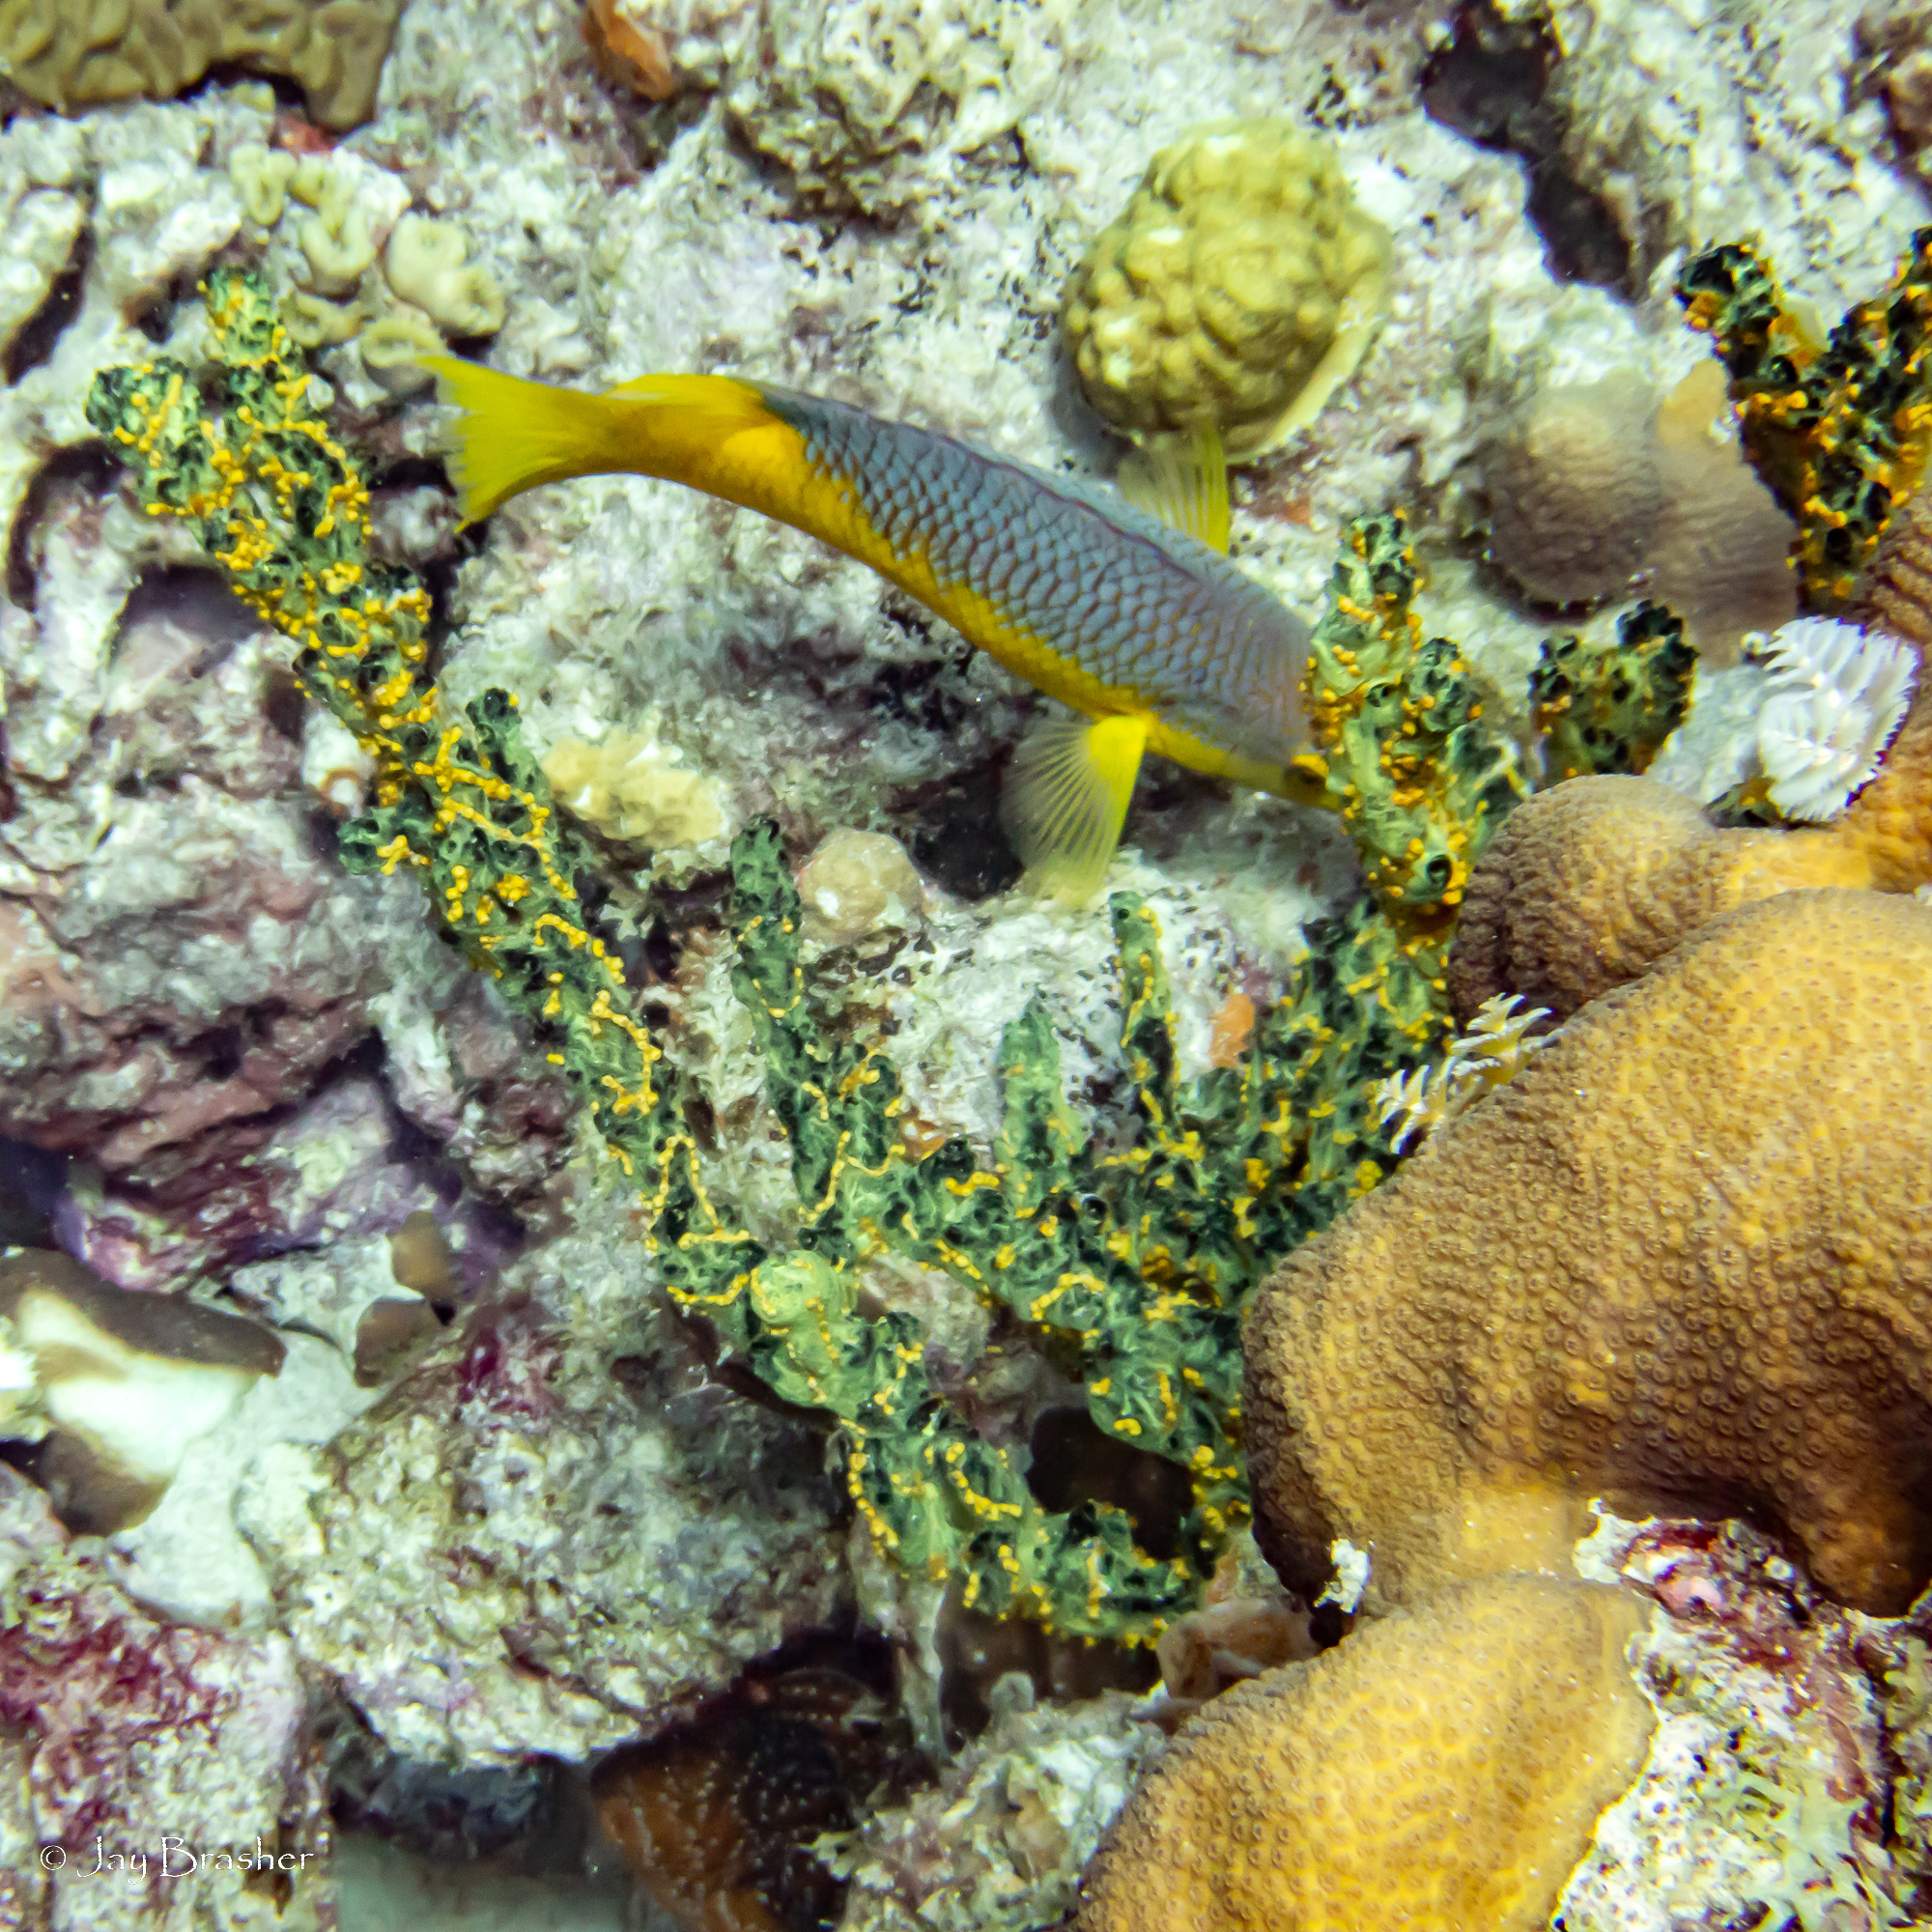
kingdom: Animalia
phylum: Cnidaria
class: Anthozoa
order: Zoantharia
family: Parazoanthidae
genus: Parazoanthus
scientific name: Parazoanthus swiftii
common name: Golden zoanthid
